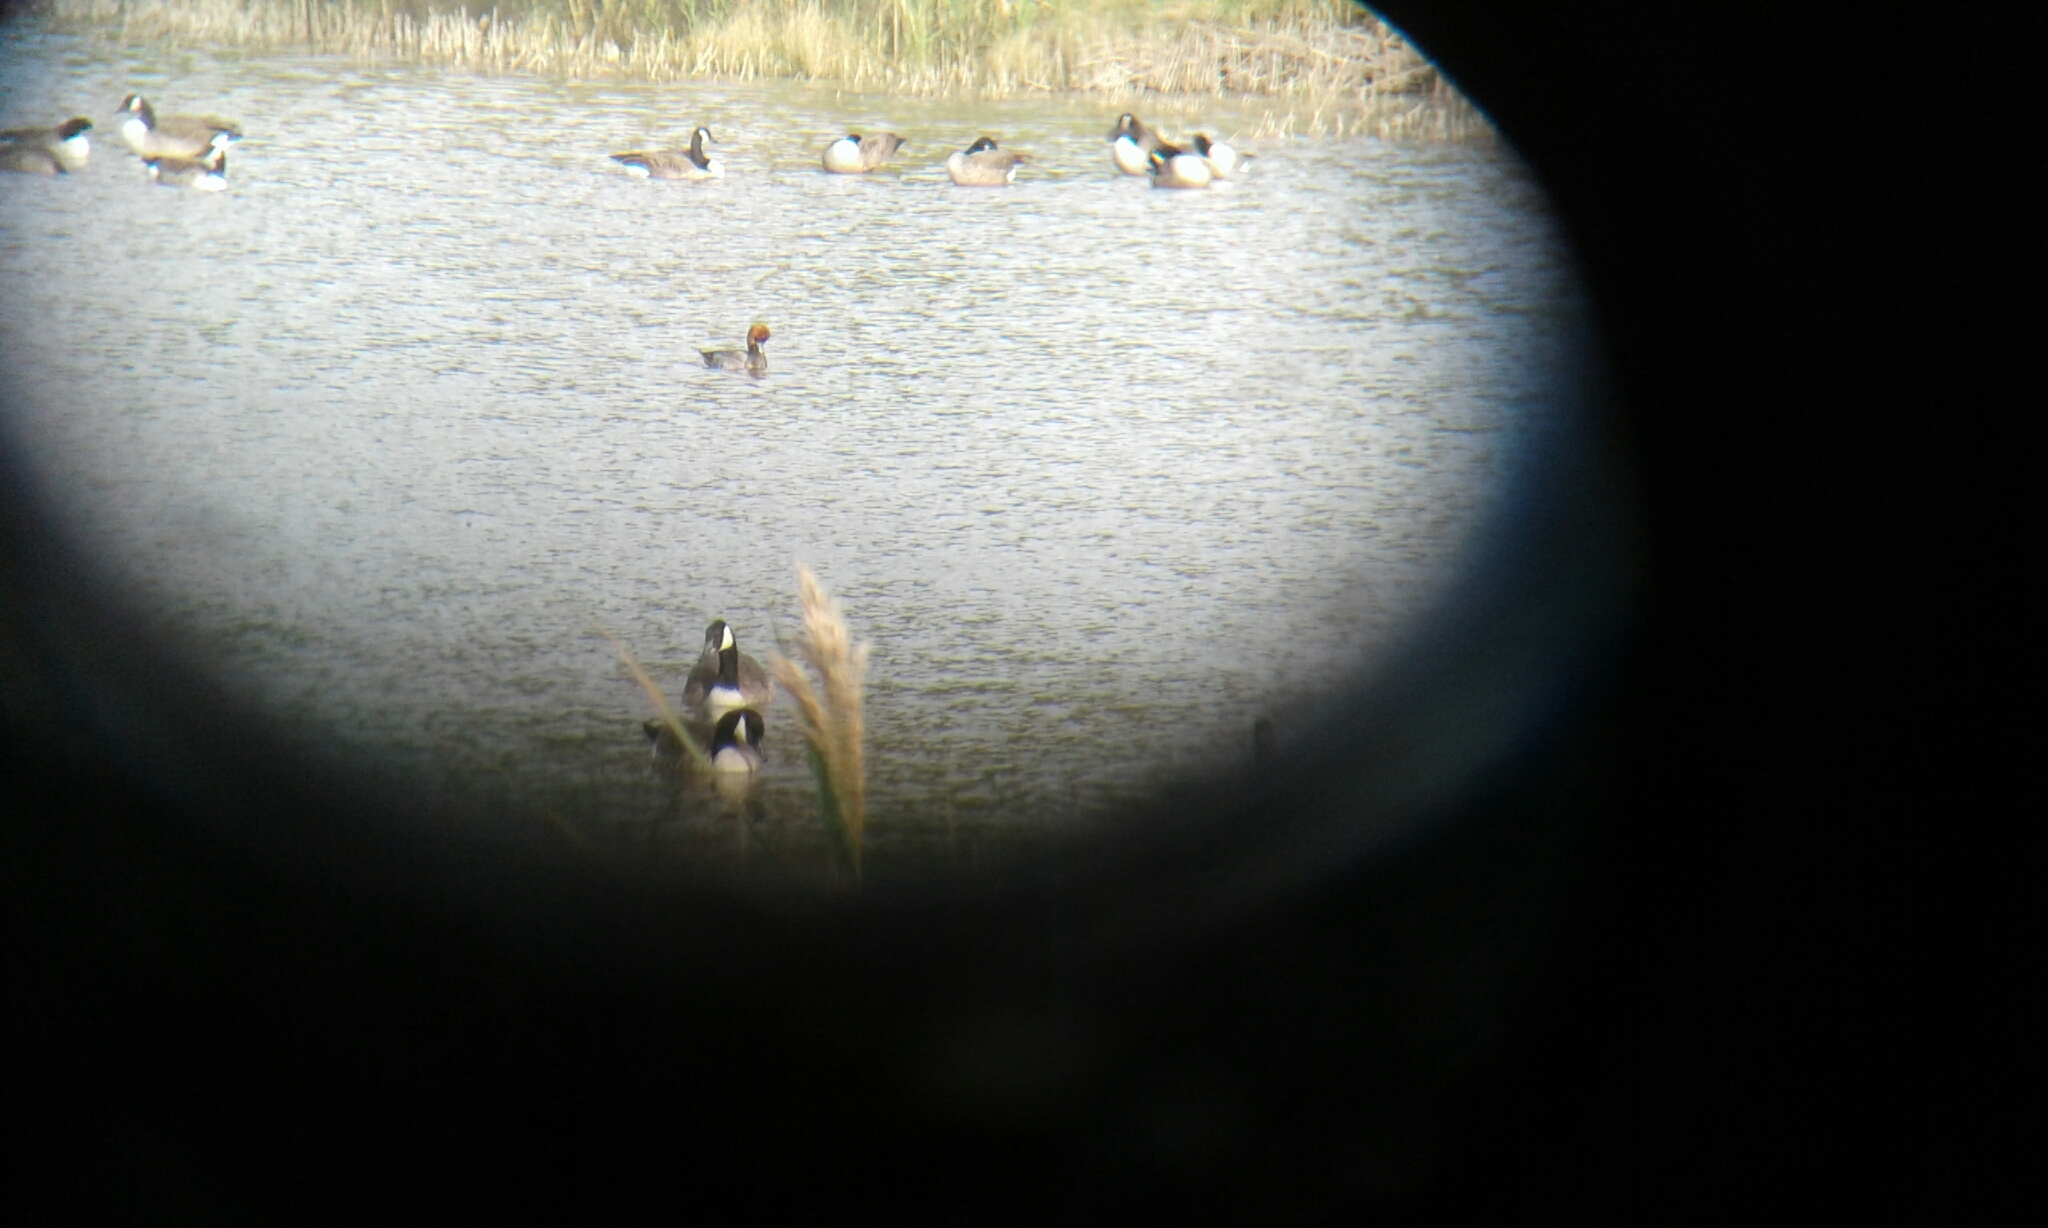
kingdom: Animalia
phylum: Chordata
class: Aves
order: Anseriformes
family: Anatidae
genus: Aythya
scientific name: Aythya americana
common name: Redhead
